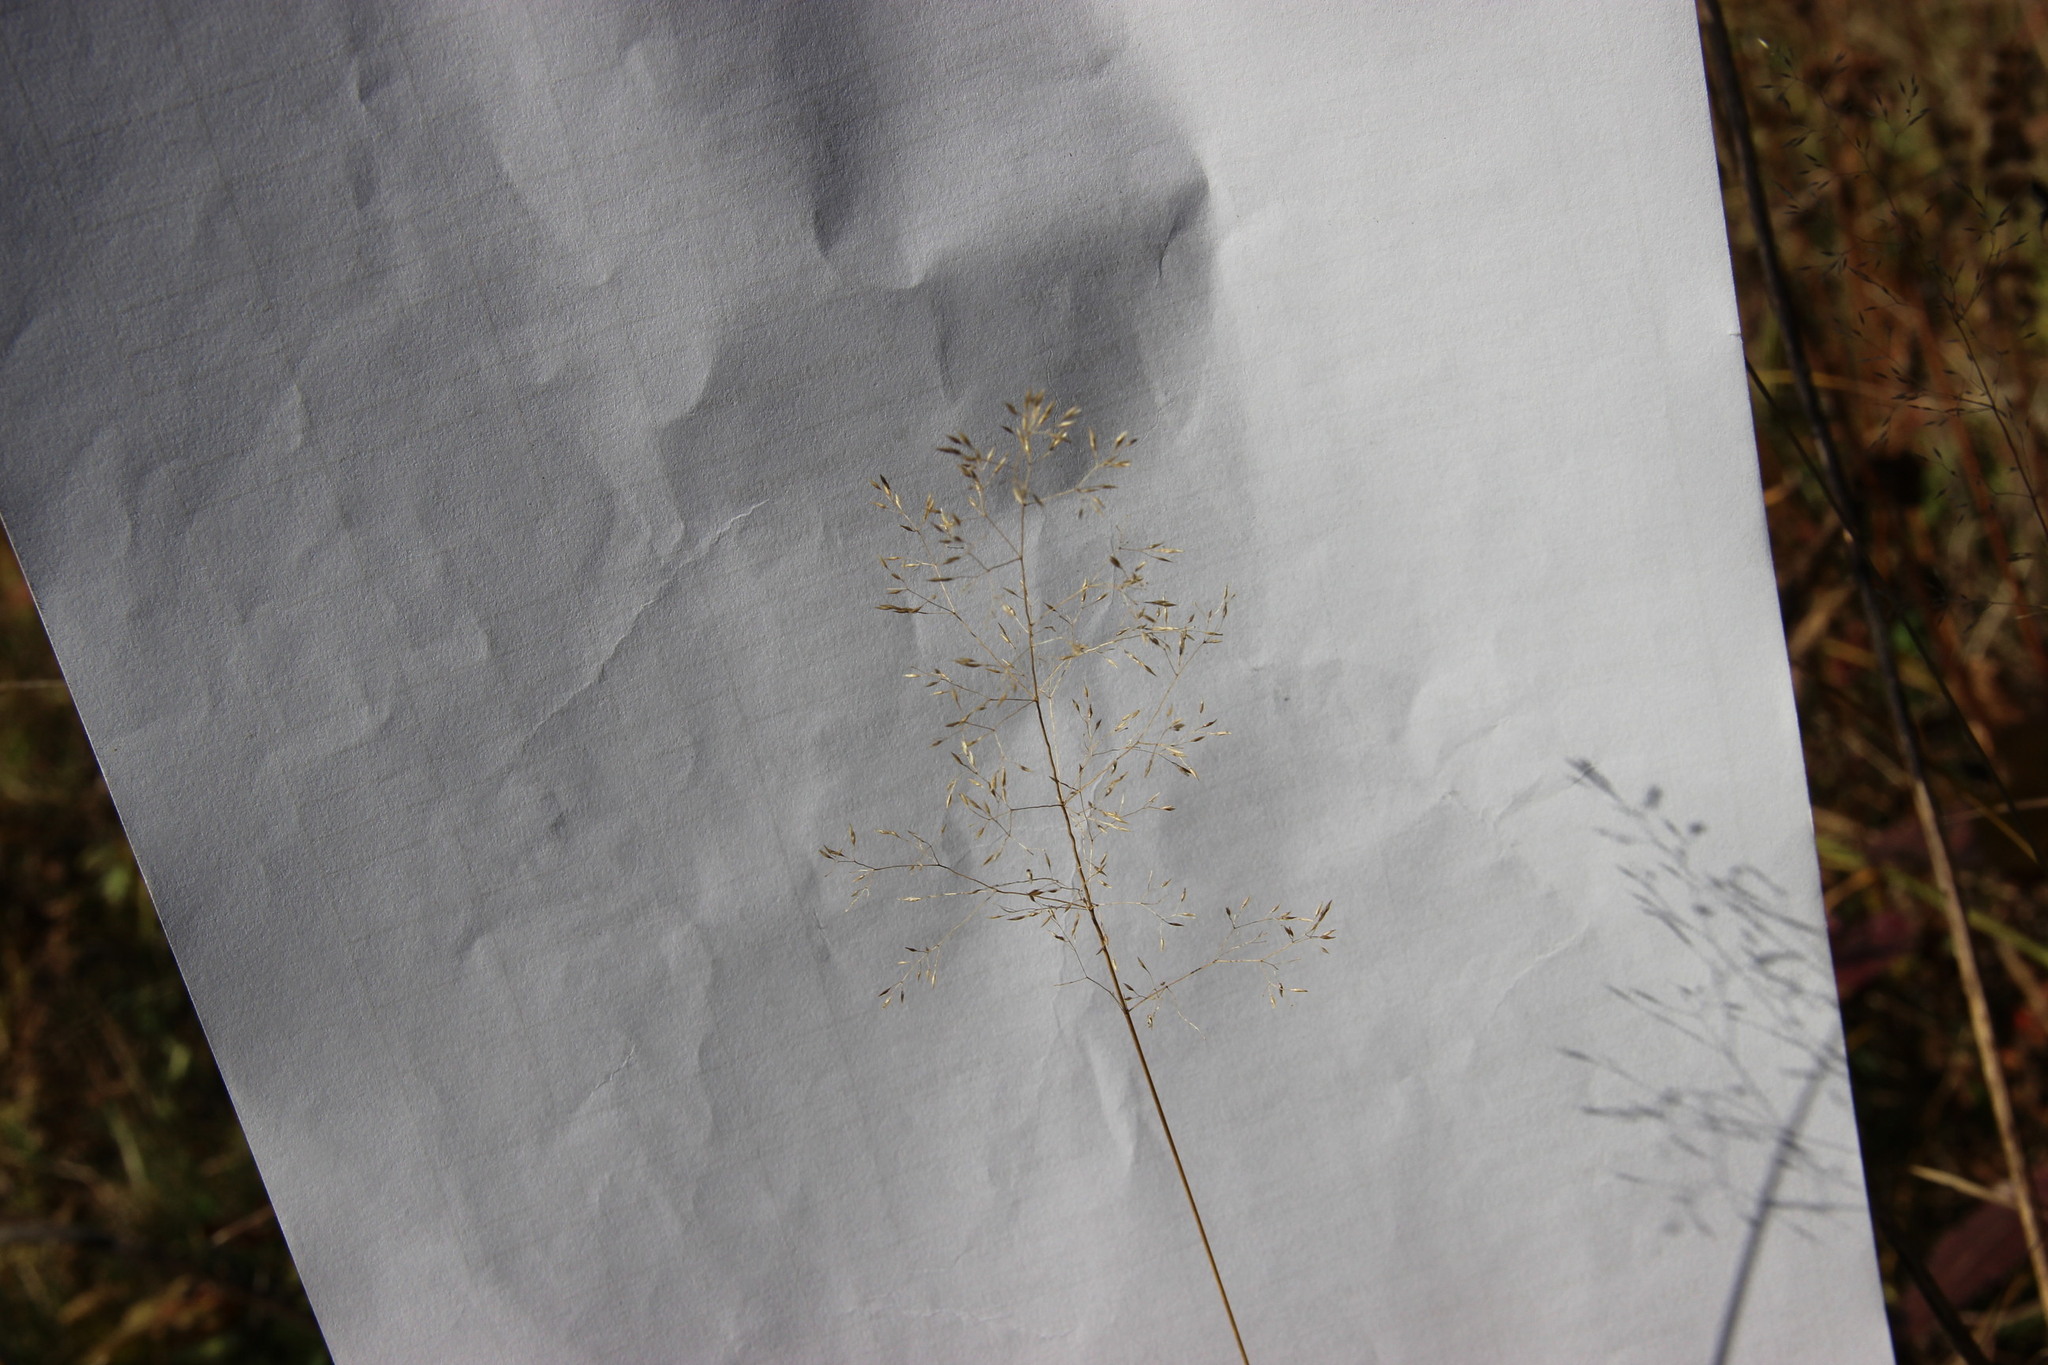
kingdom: Plantae
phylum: Tracheophyta
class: Liliopsida
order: Poales
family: Poaceae
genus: Agrostis
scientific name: Agrostis capillaris
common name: Colonial bentgrass
